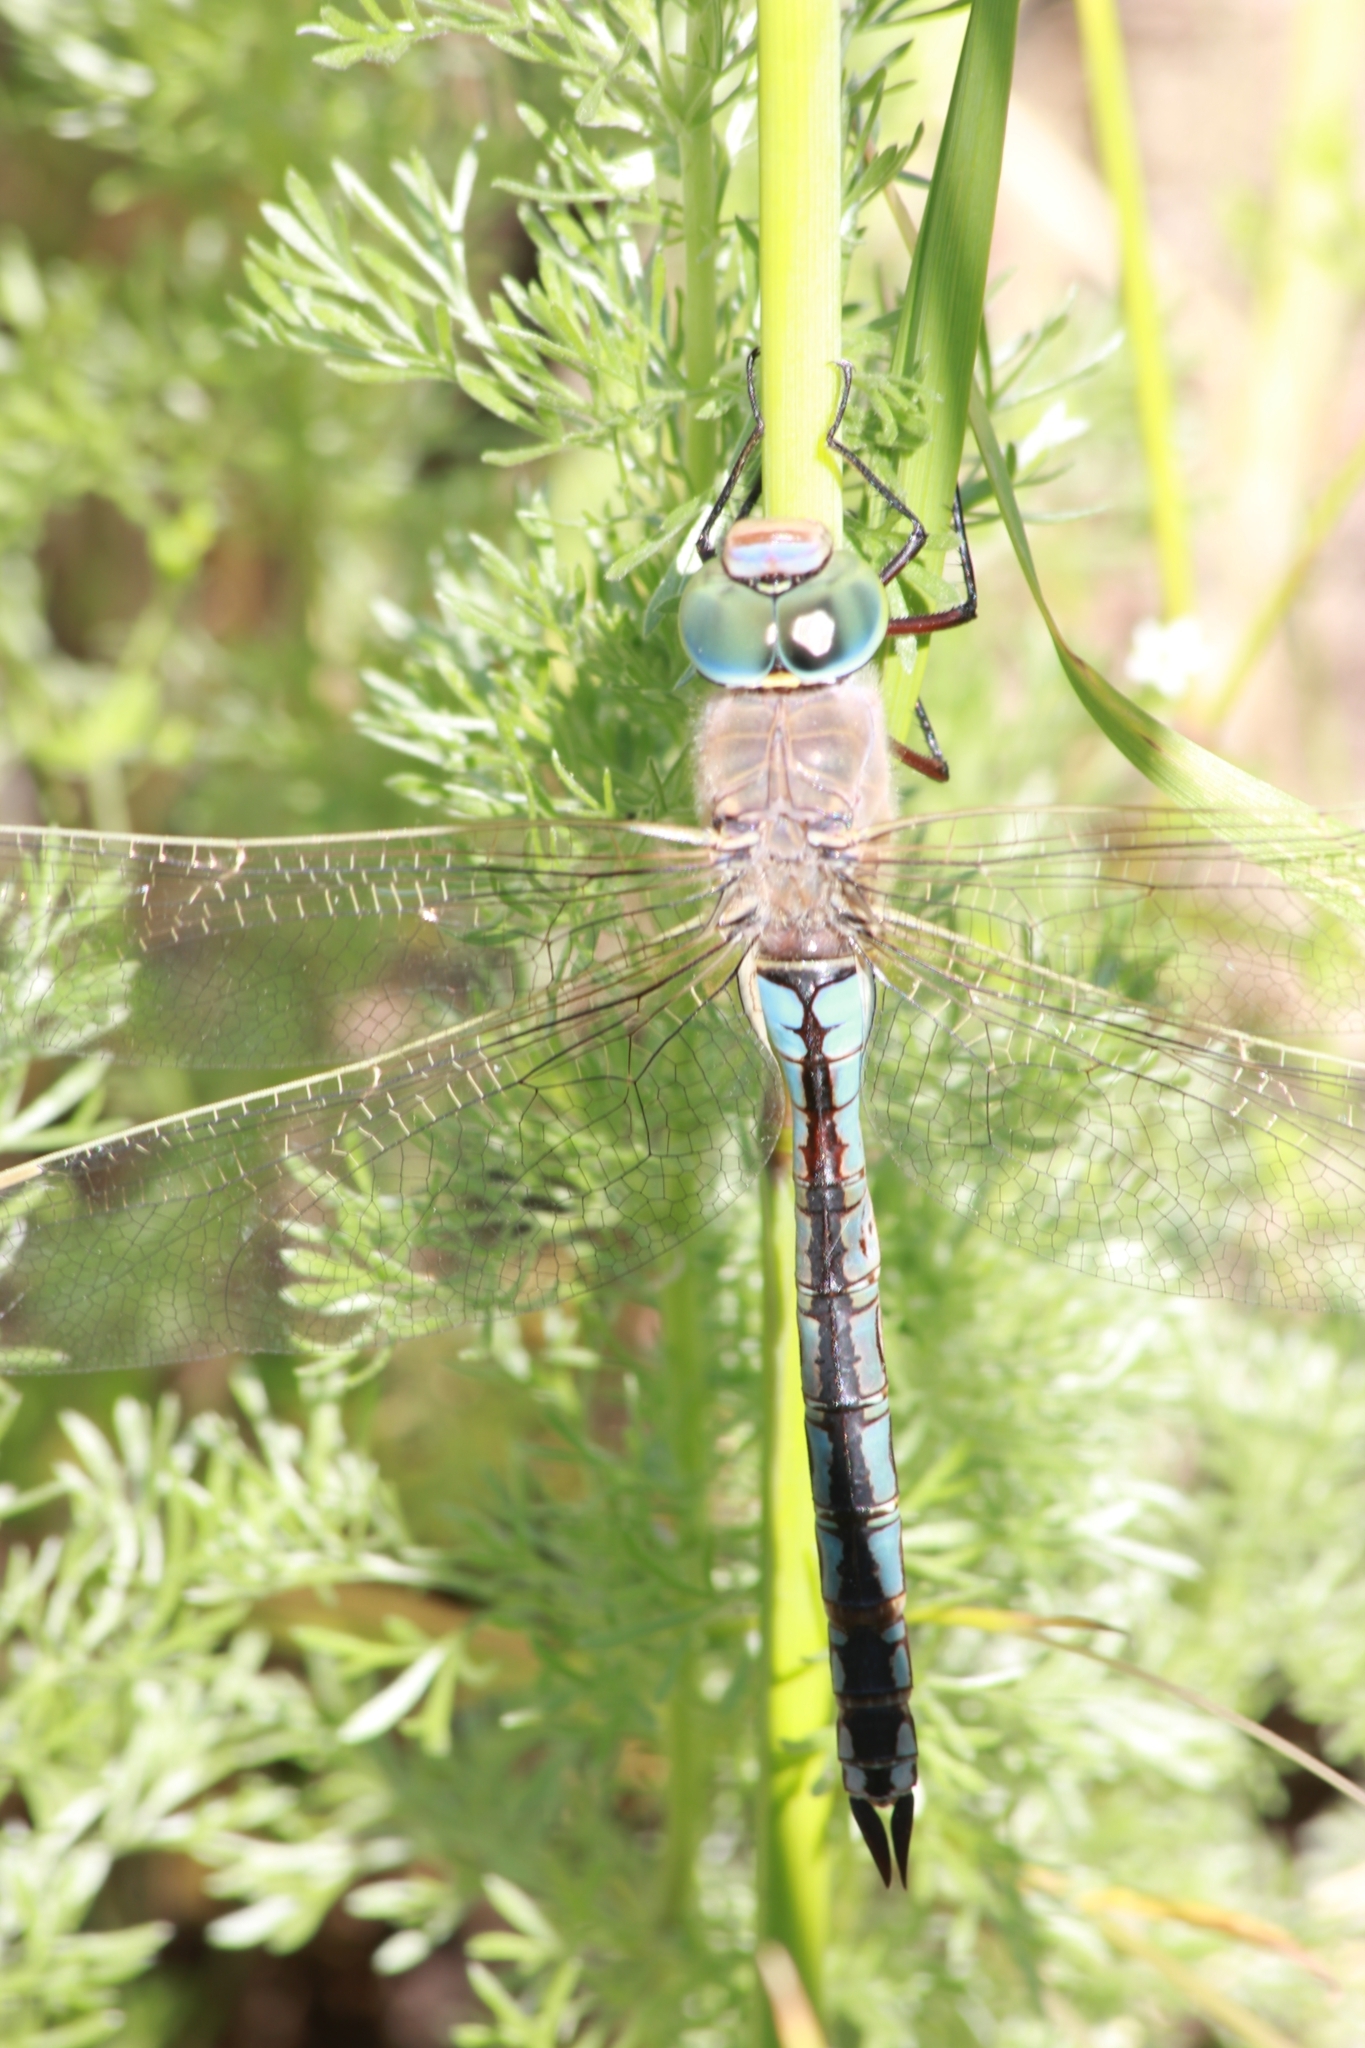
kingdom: Animalia
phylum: Arthropoda
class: Insecta
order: Odonata
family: Aeshnidae
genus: Anax
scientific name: Anax parthenope
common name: Lesser emperor
